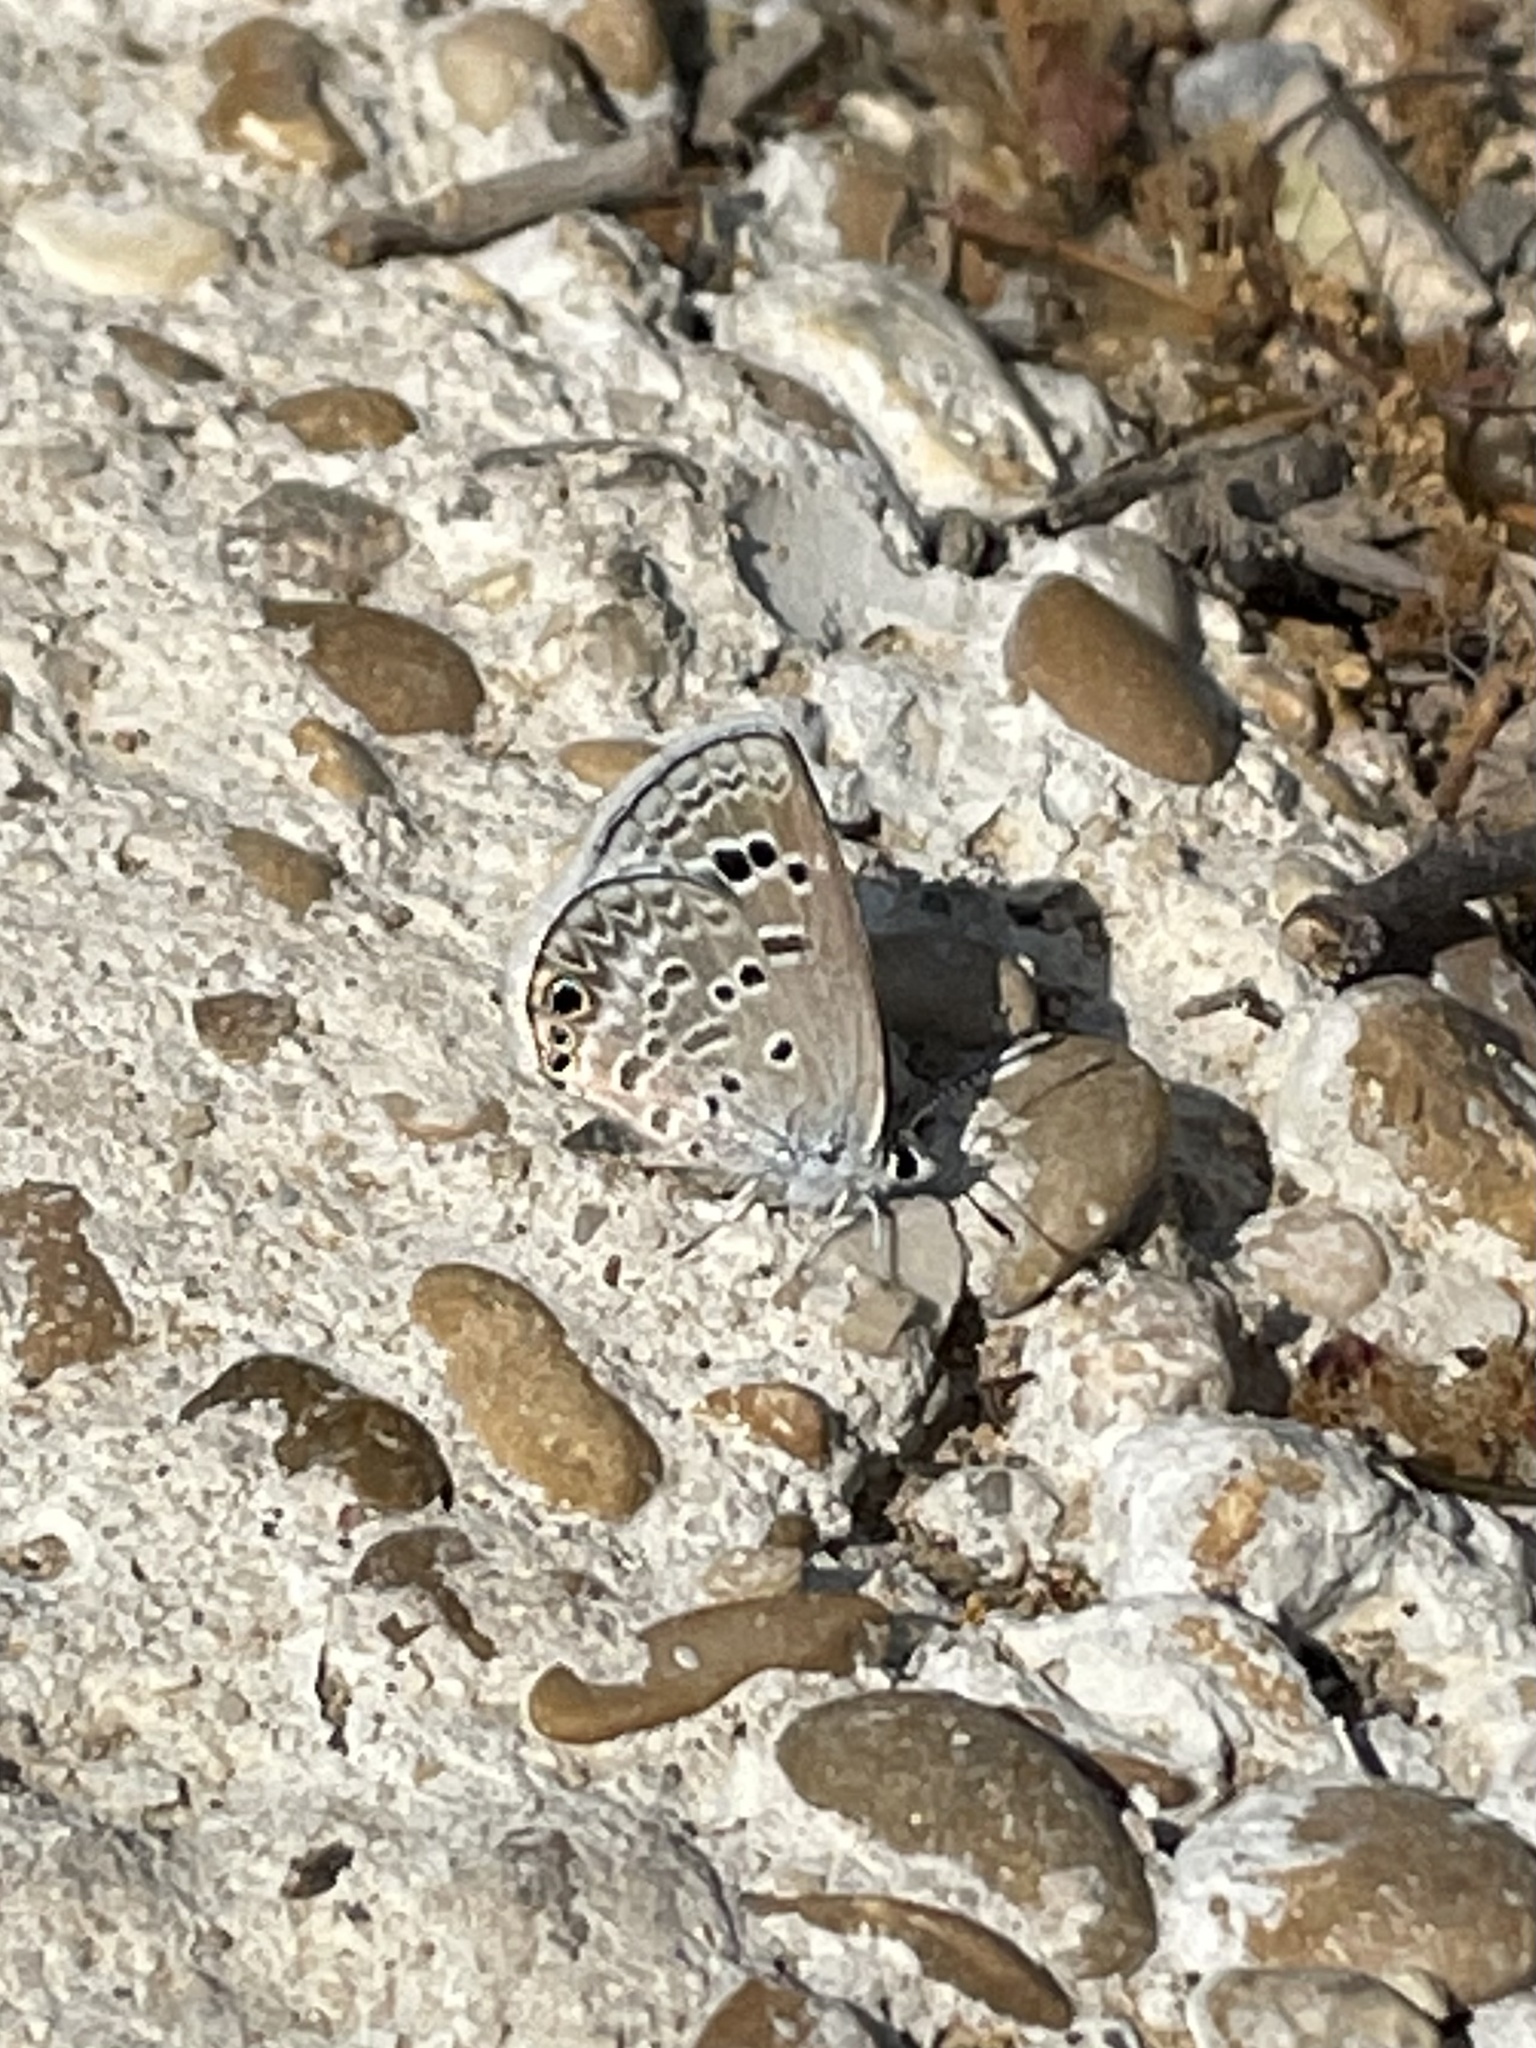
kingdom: Animalia
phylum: Arthropoda
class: Insecta
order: Lepidoptera
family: Lycaenidae
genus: Echinargus
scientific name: Echinargus isola
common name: Reakirt's blue
